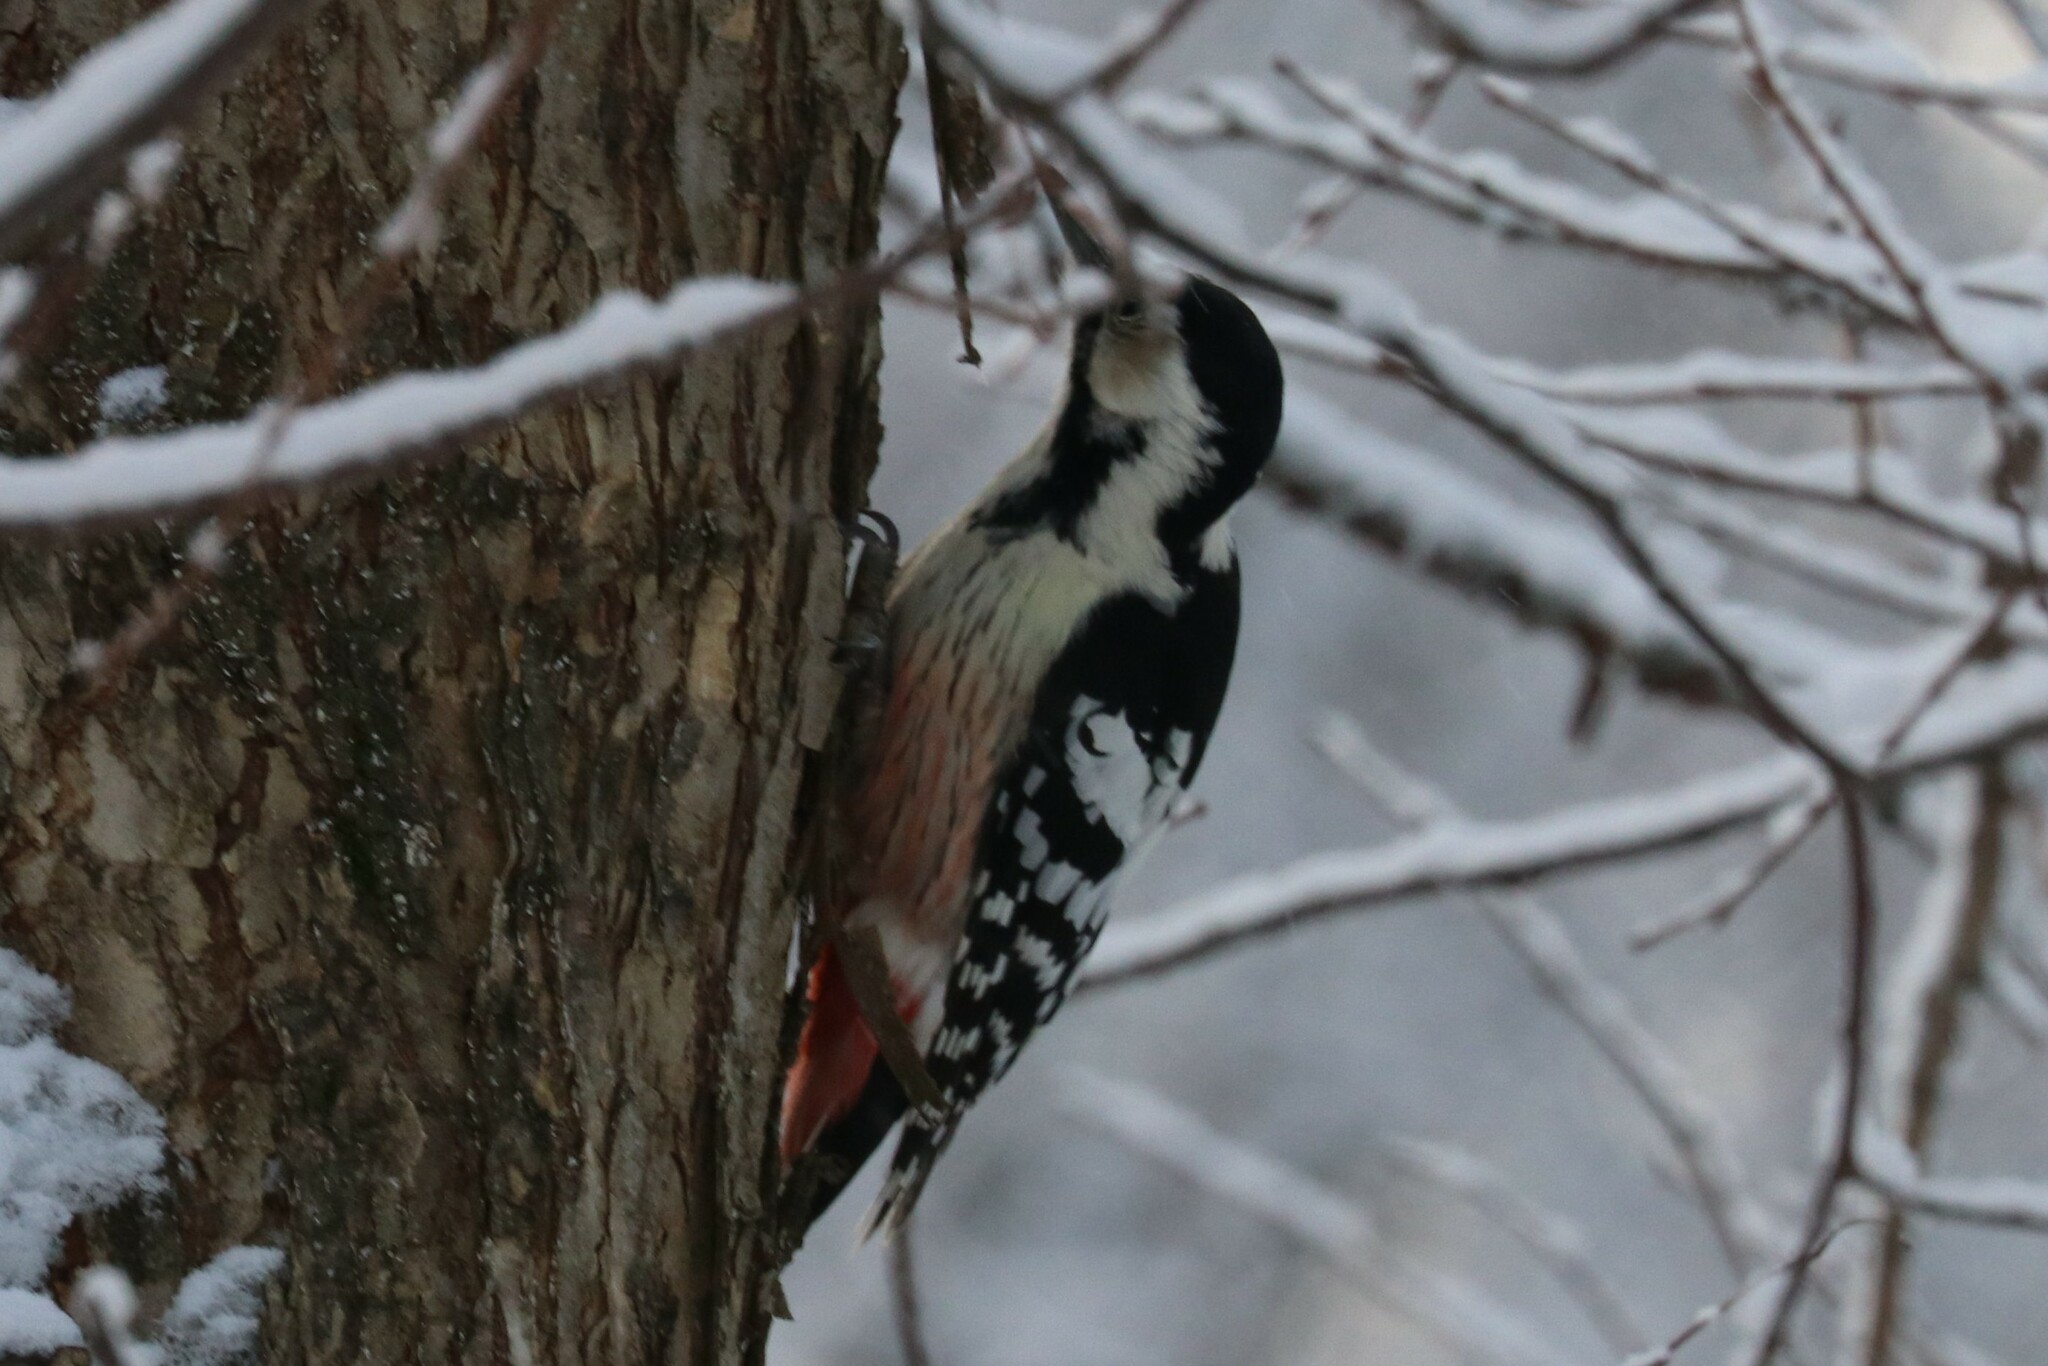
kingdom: Animalia
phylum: Chordata
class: Aves
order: Piciformes
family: Picidae
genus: Dendrocopos
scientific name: Dendrocopos leucotos
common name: White-backed woodpecker
